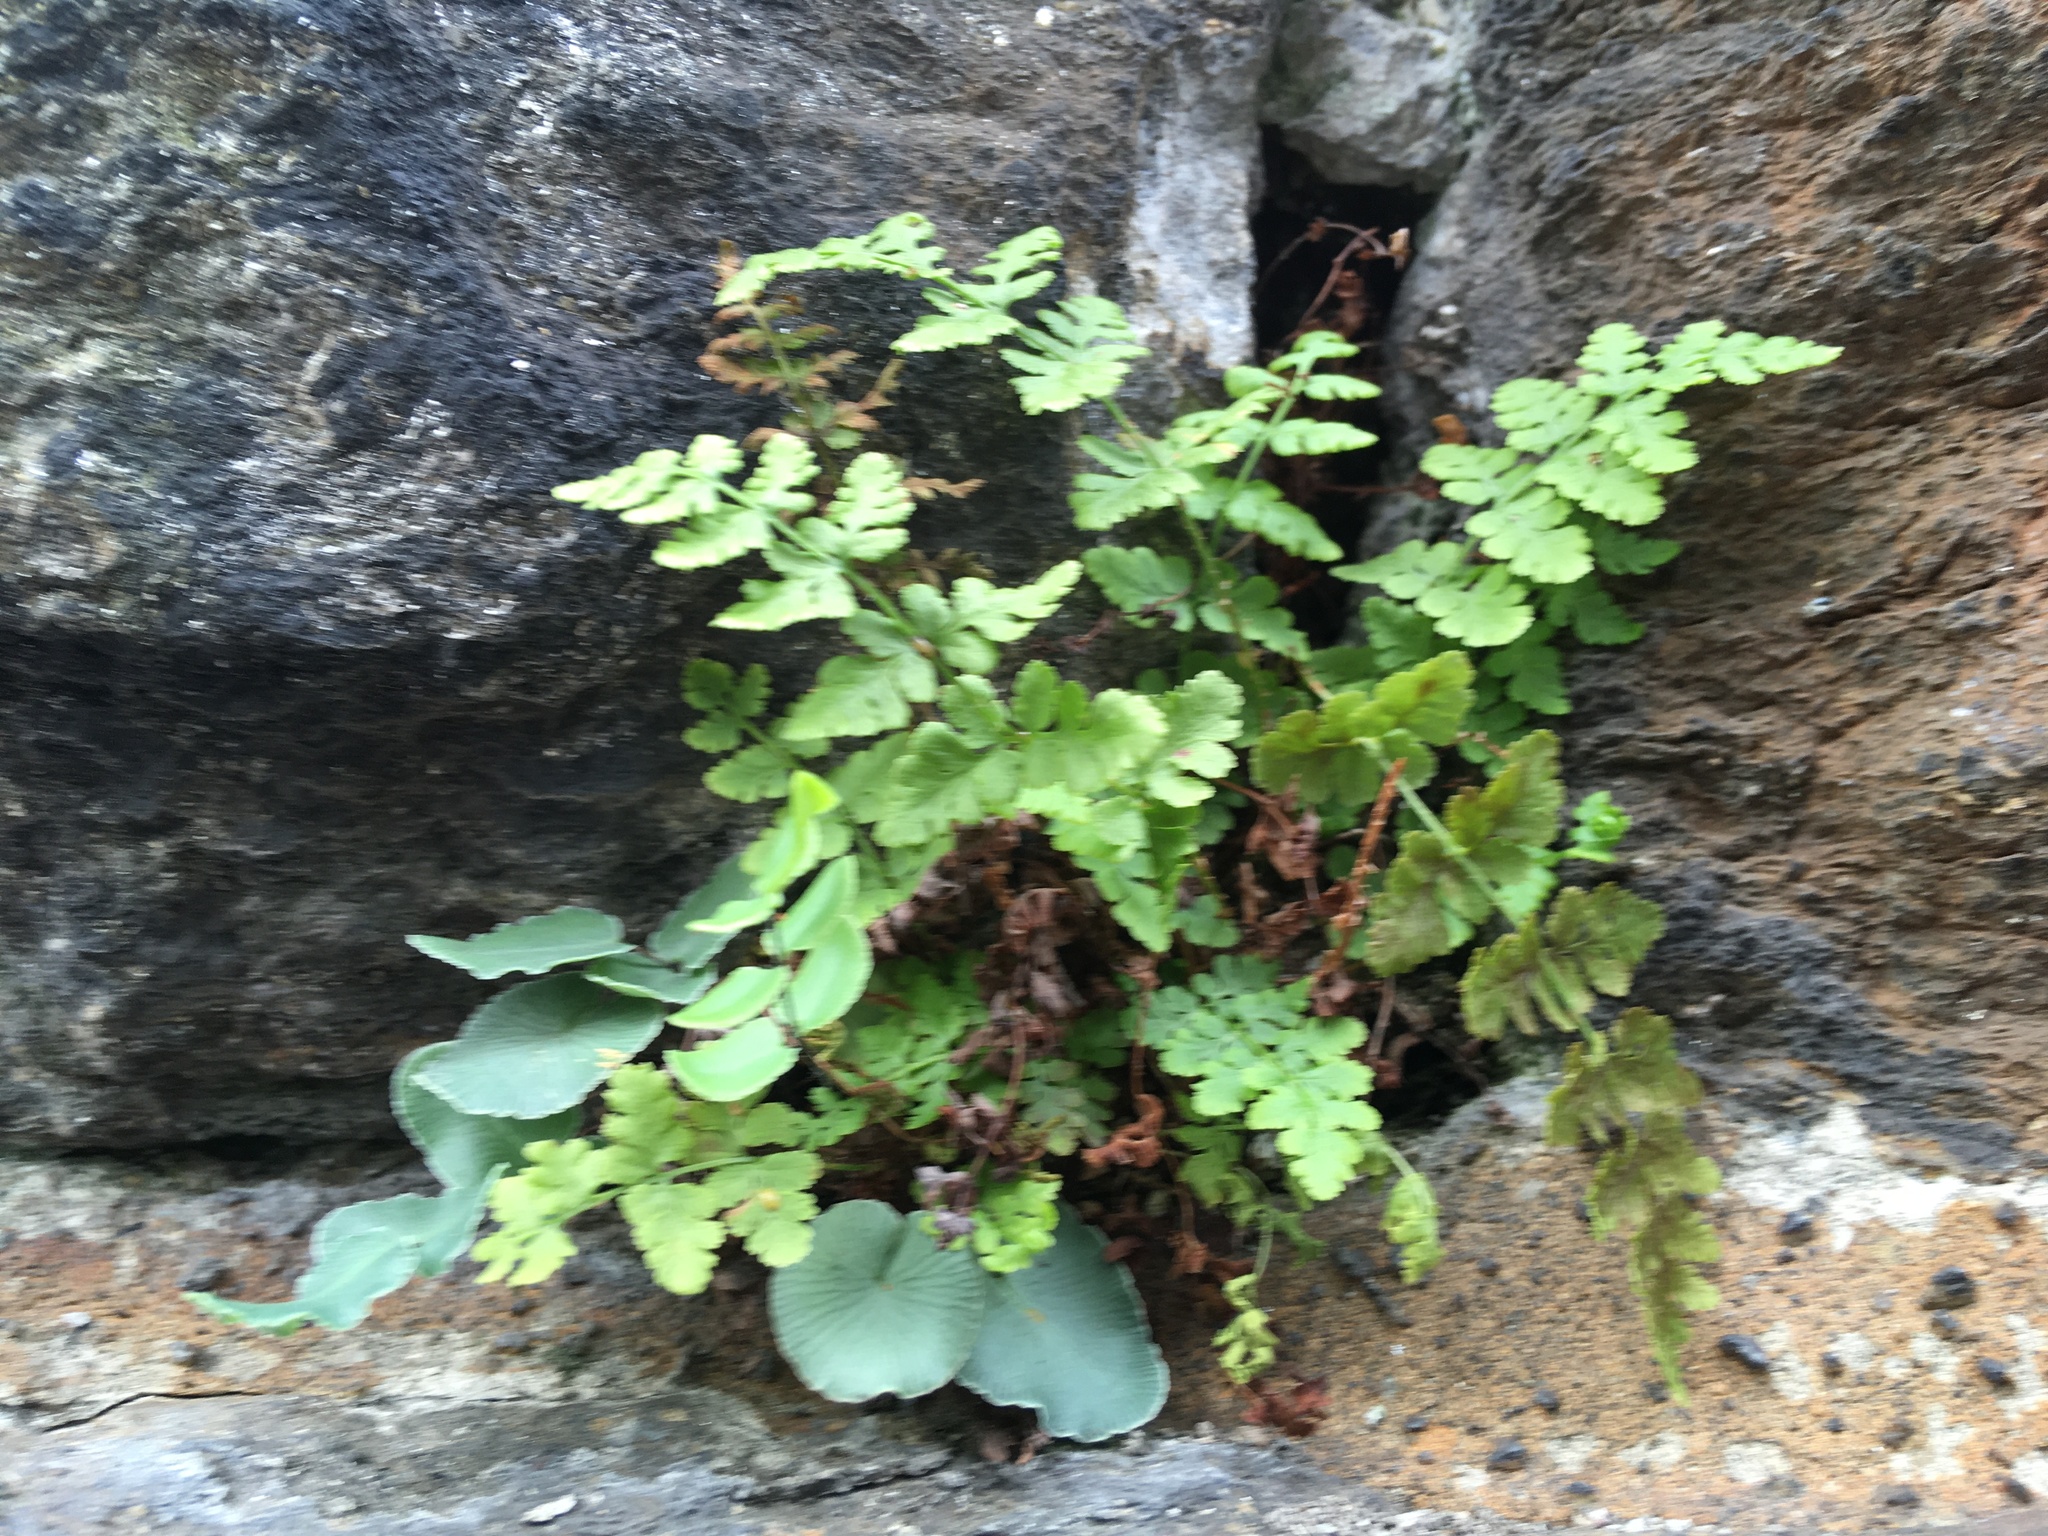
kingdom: Plantae
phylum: Tracheophyta
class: Polypodiopsida
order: Polypodiales
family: Woodsiaceae
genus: Physematium
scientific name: Physematium obtusum
